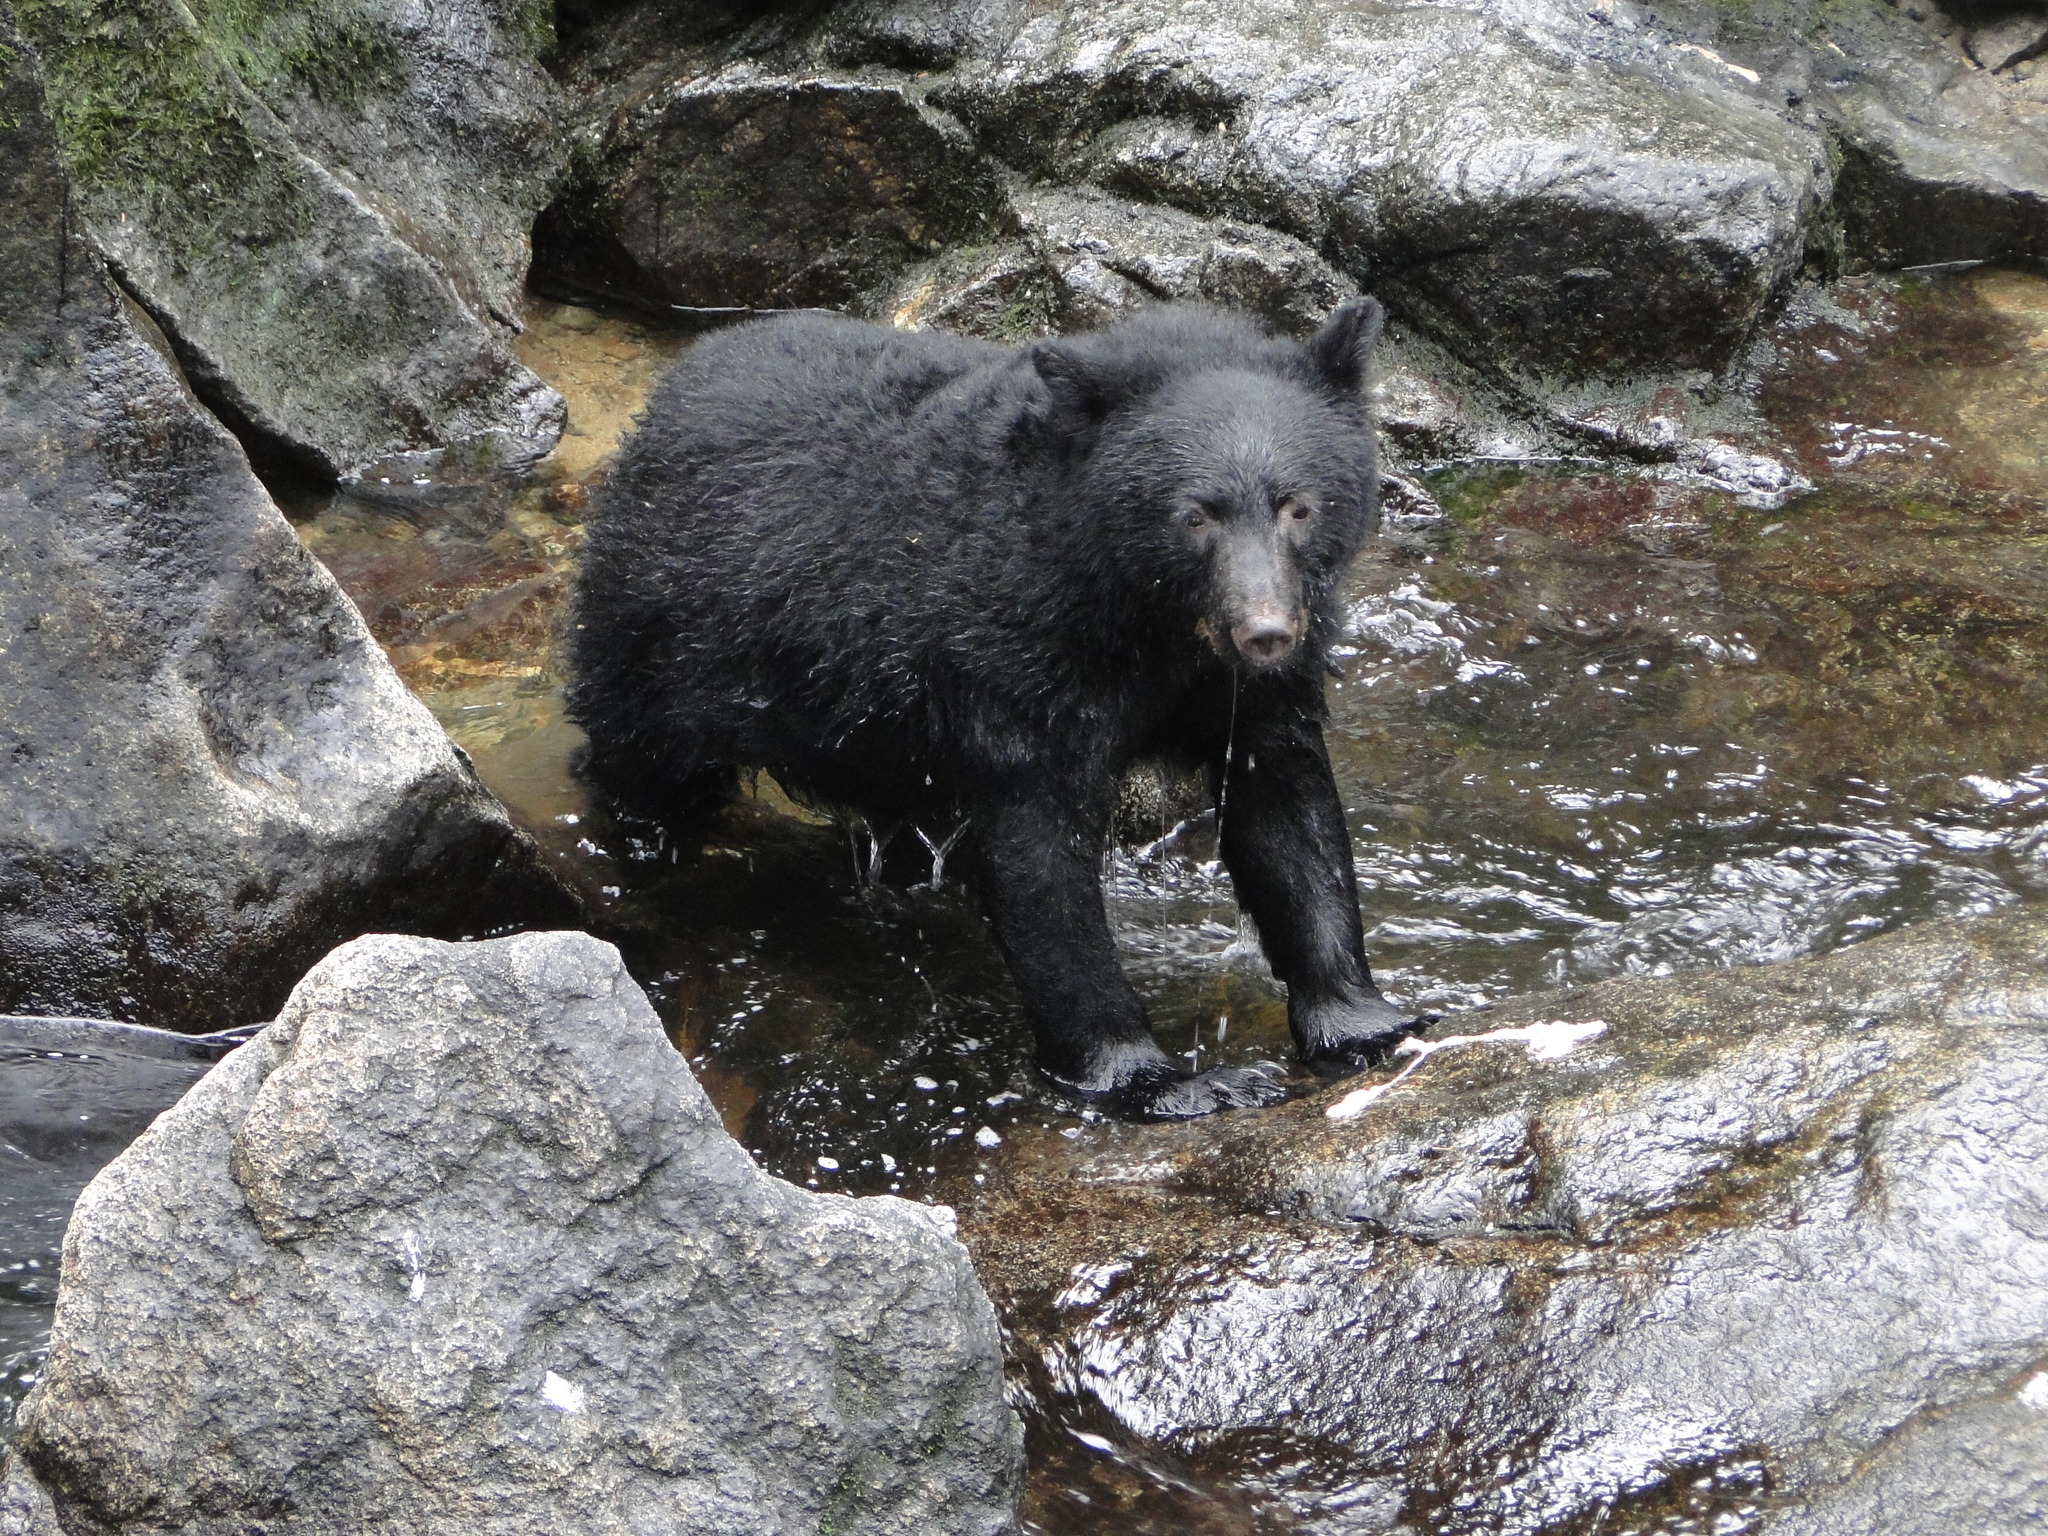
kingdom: Animalia
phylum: Chordata
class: Mammalia
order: Carnivora
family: Ursidae
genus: Ursus
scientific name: Ursus americanus
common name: American black bear
